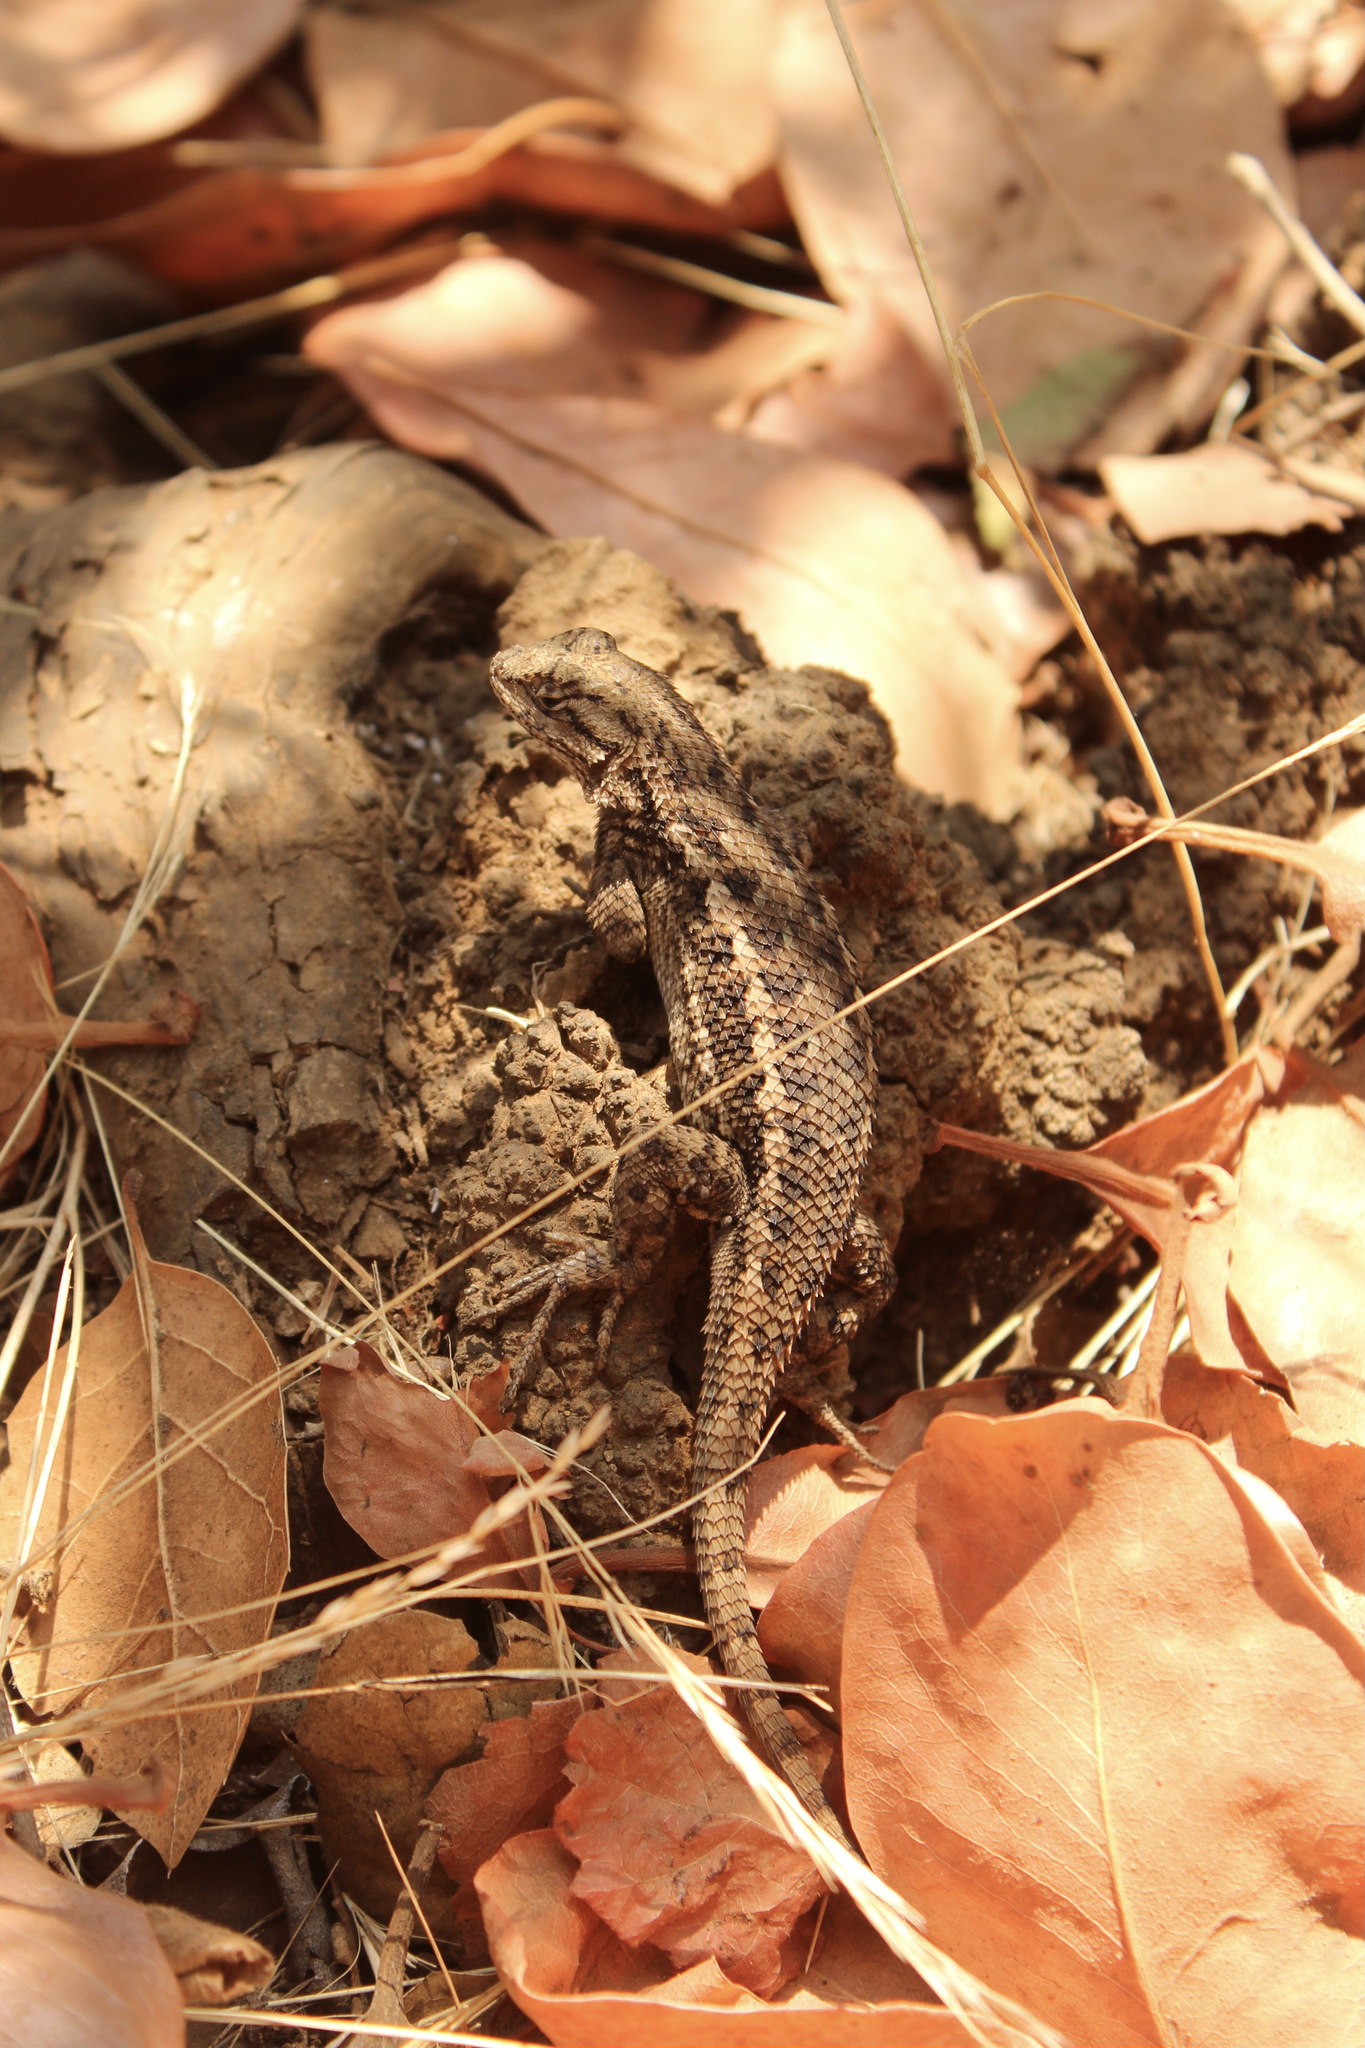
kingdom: Animalia
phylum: Chordata
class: Squamata
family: Phrynosomatidae
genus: Sceloporus
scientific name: Sceloporus occidentalis
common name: Western fence lizard
